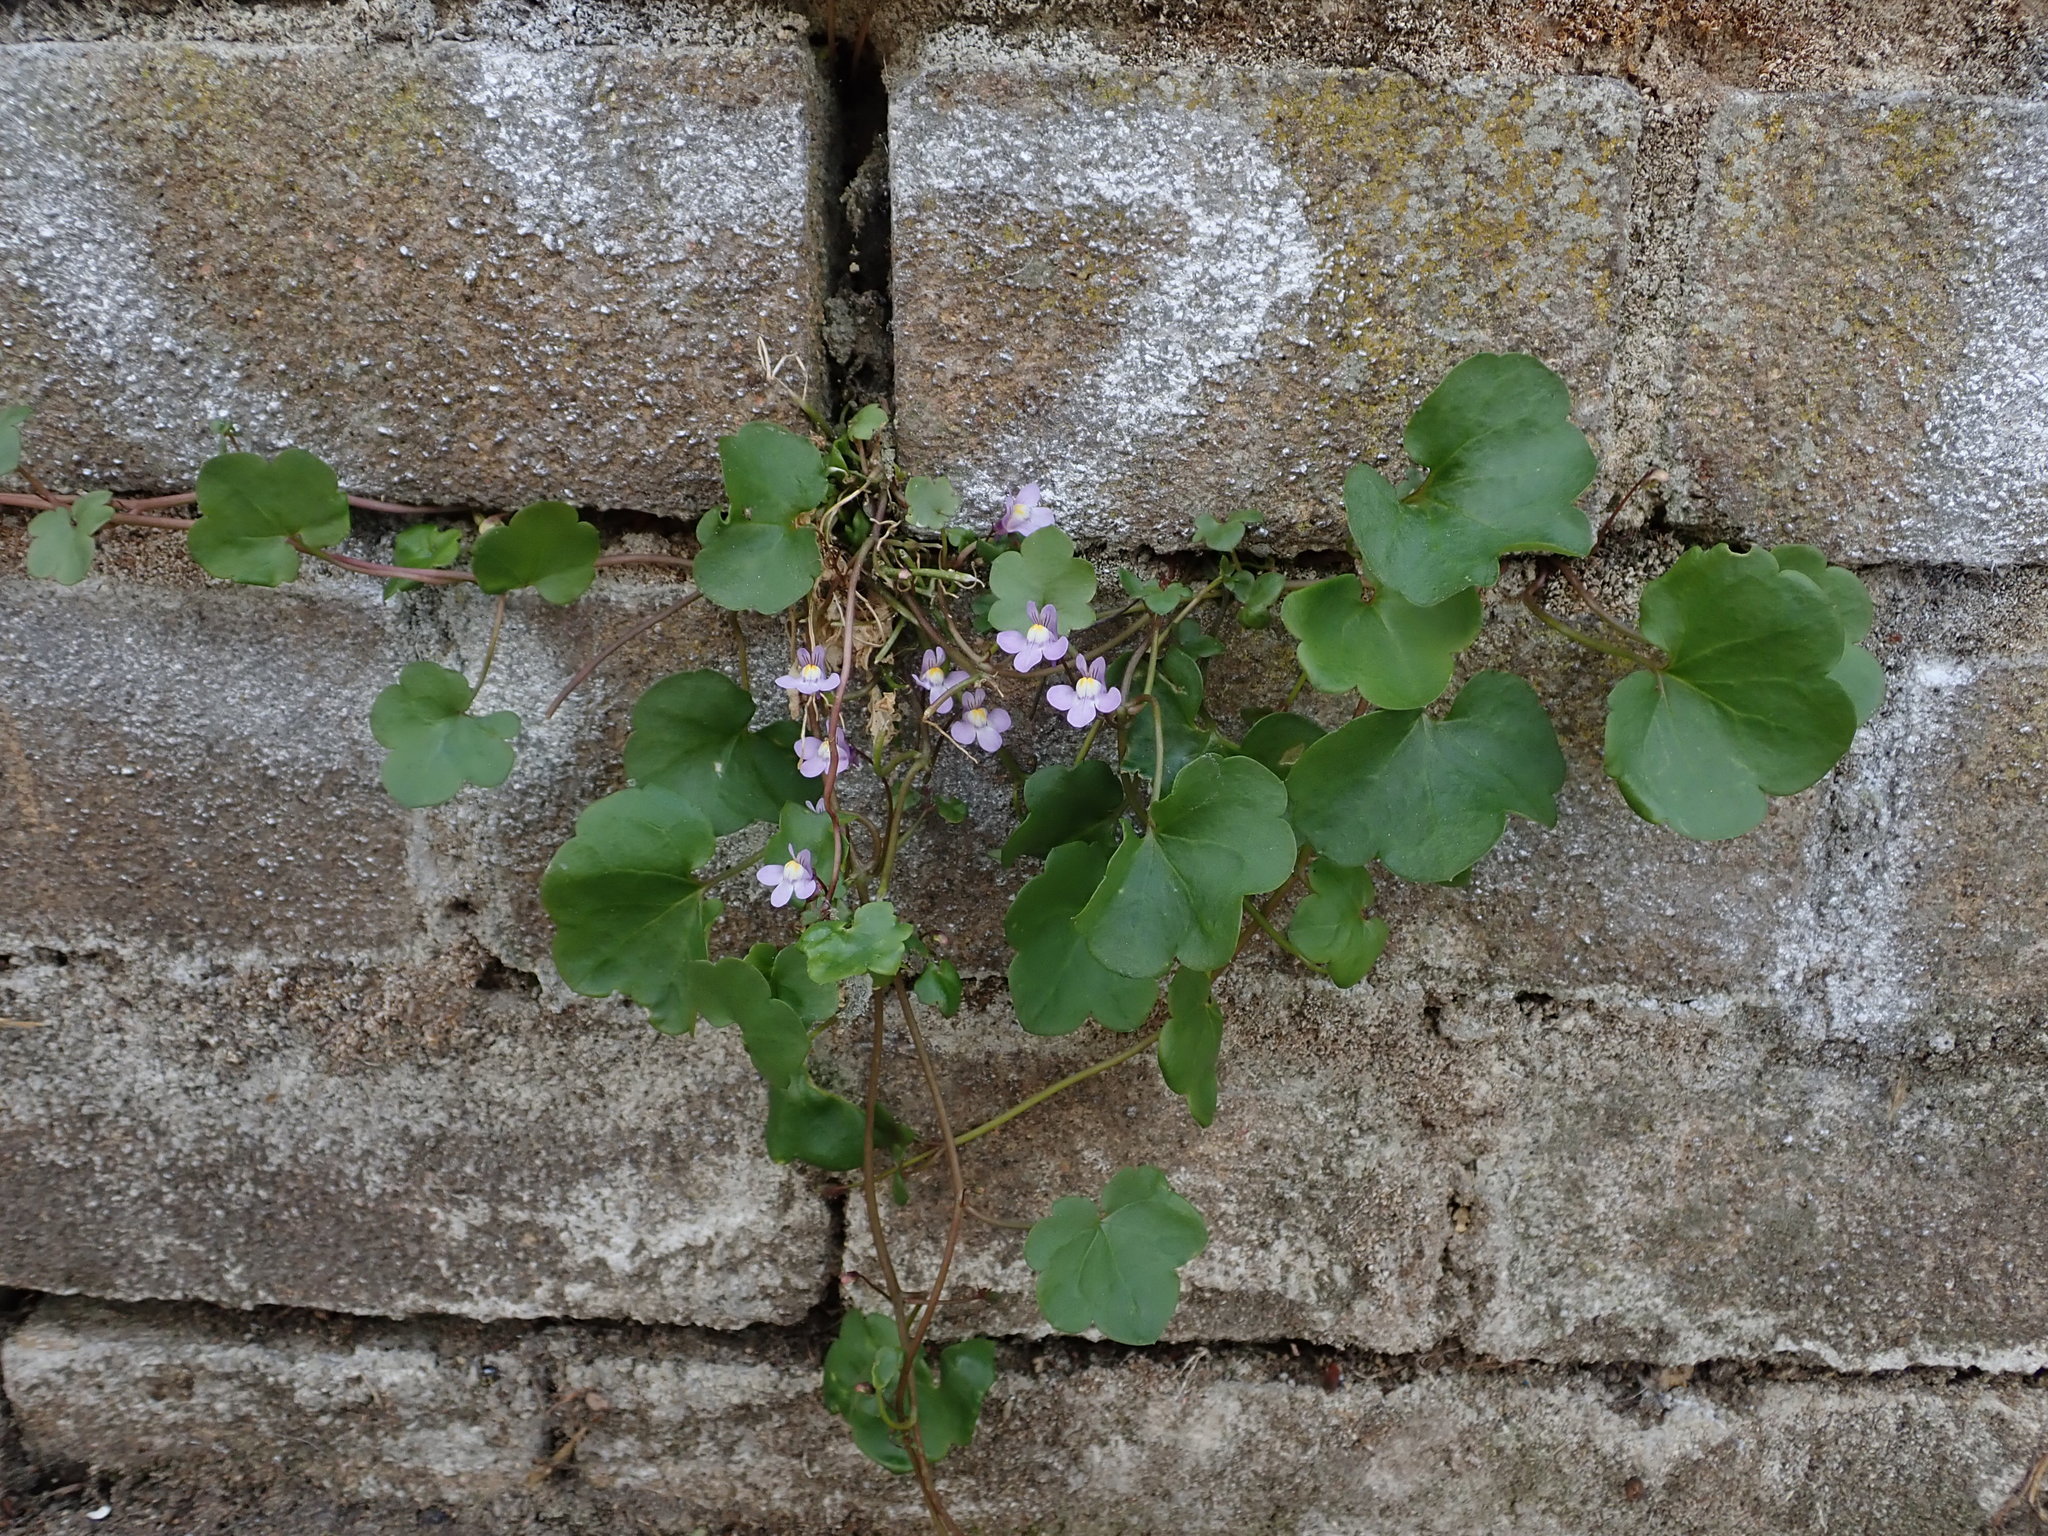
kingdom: Plantae
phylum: Tracheophyta
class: Magnoliopsida
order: Lamiales
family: Plantaginaceae
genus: Cymbalaria
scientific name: Cymbalaria muralis
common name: Ivy-leaved toadflax
